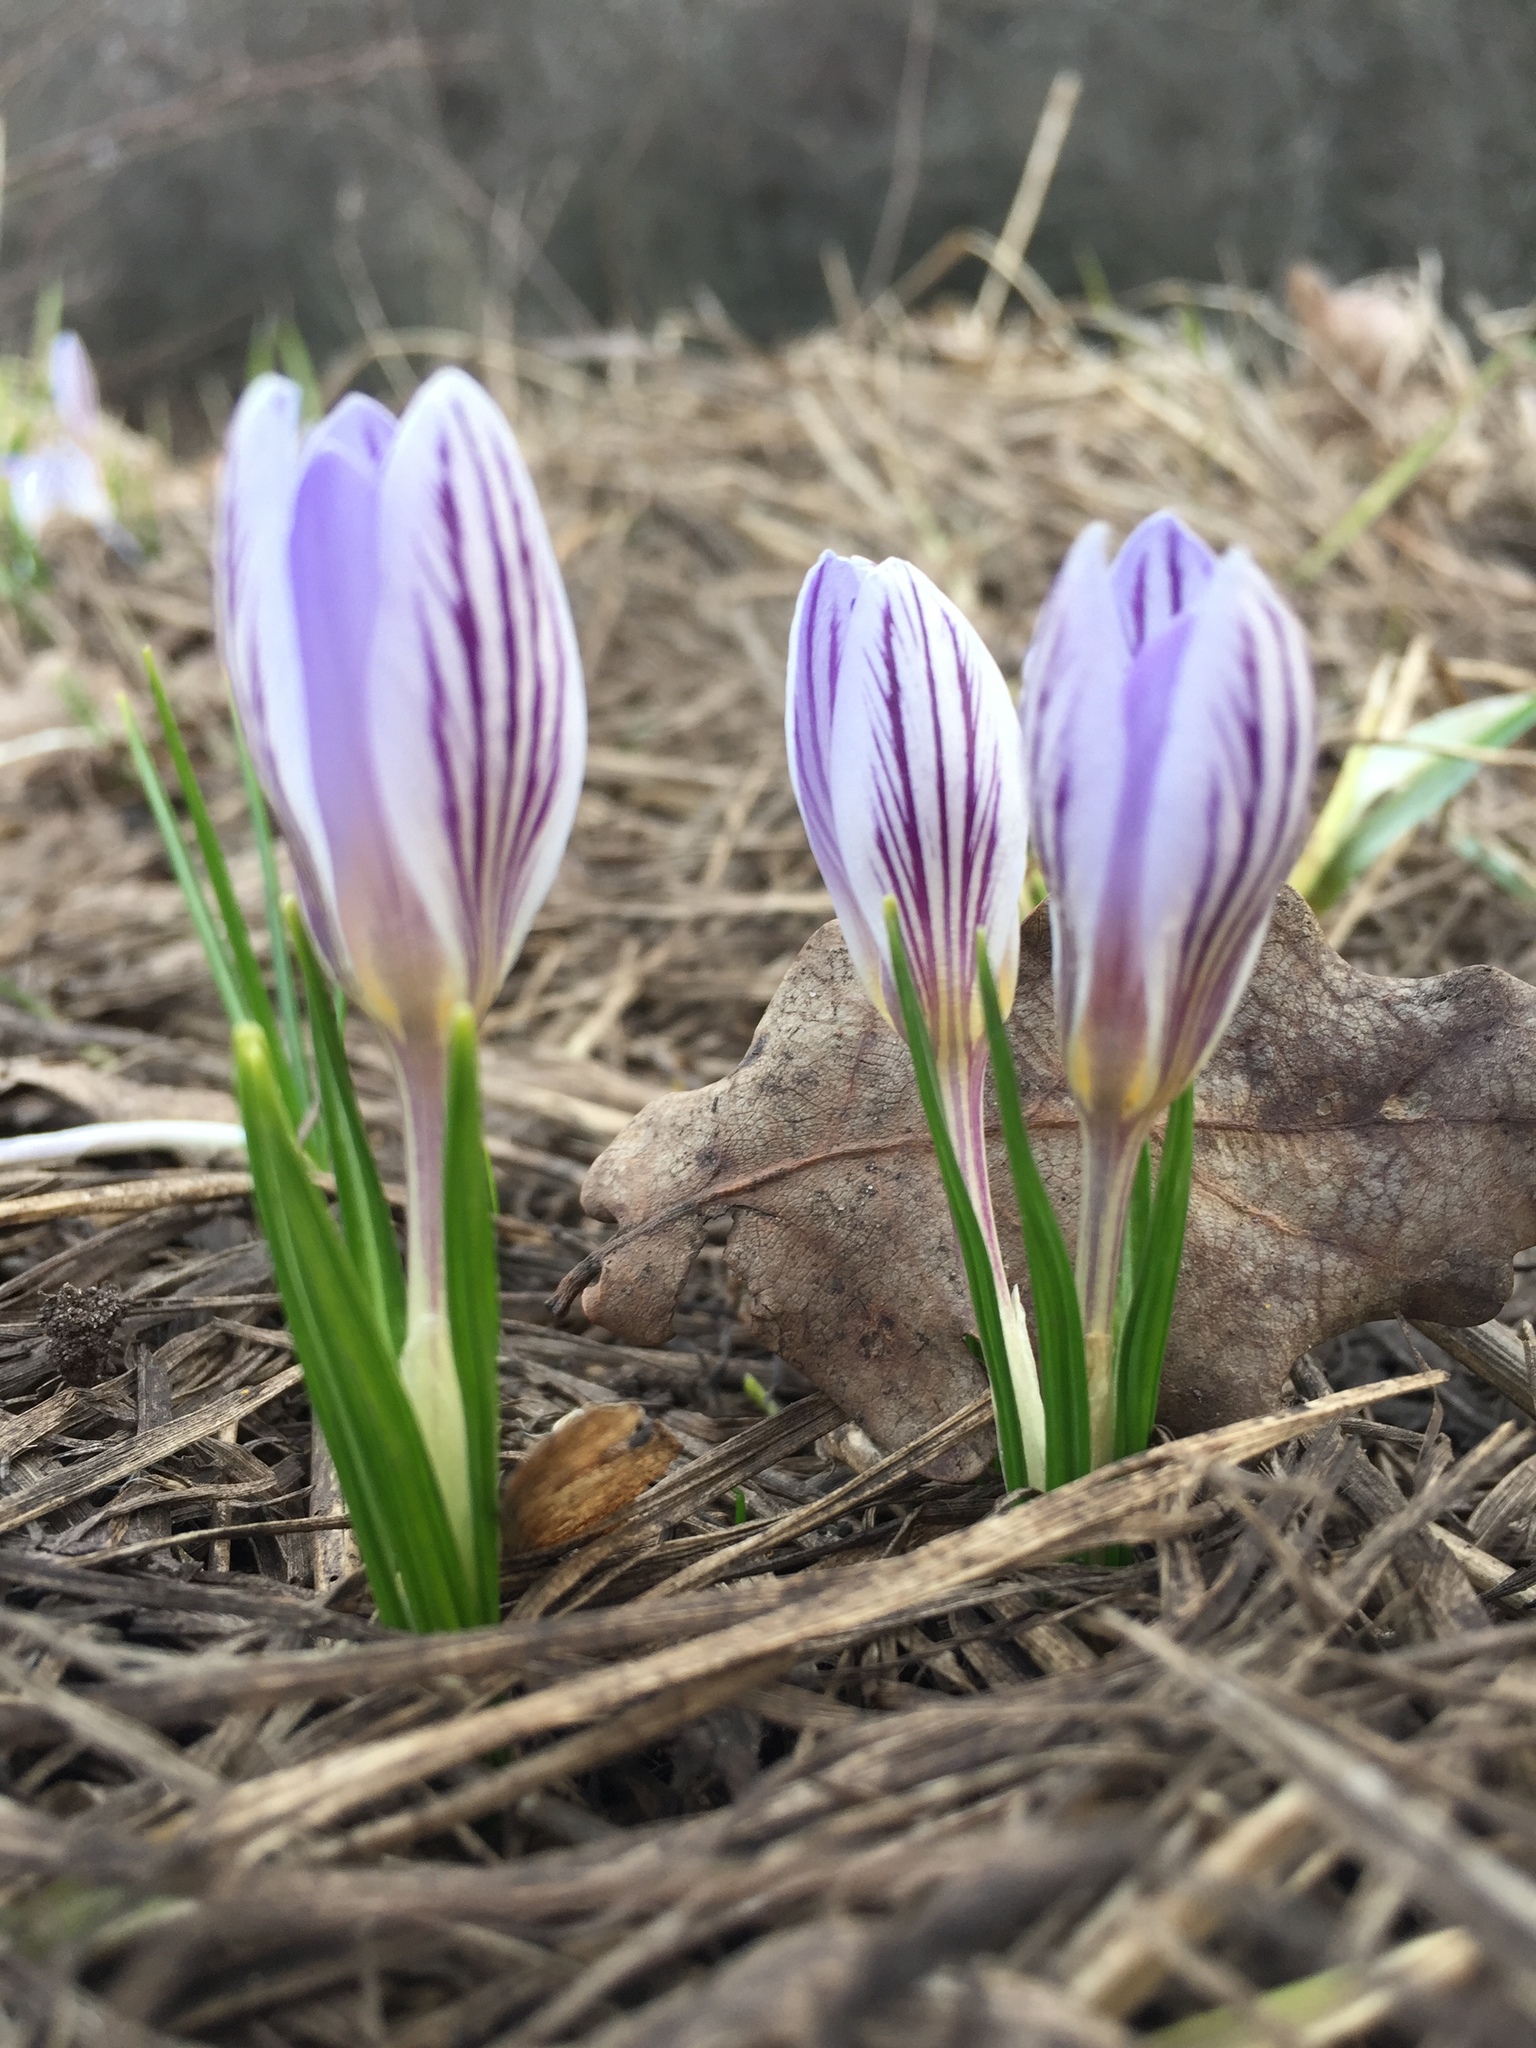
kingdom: Plantae
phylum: Tracheophyta
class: Liliopsida
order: Asparagales
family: Iridaceae
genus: Crocus
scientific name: Crocus reticulatus
